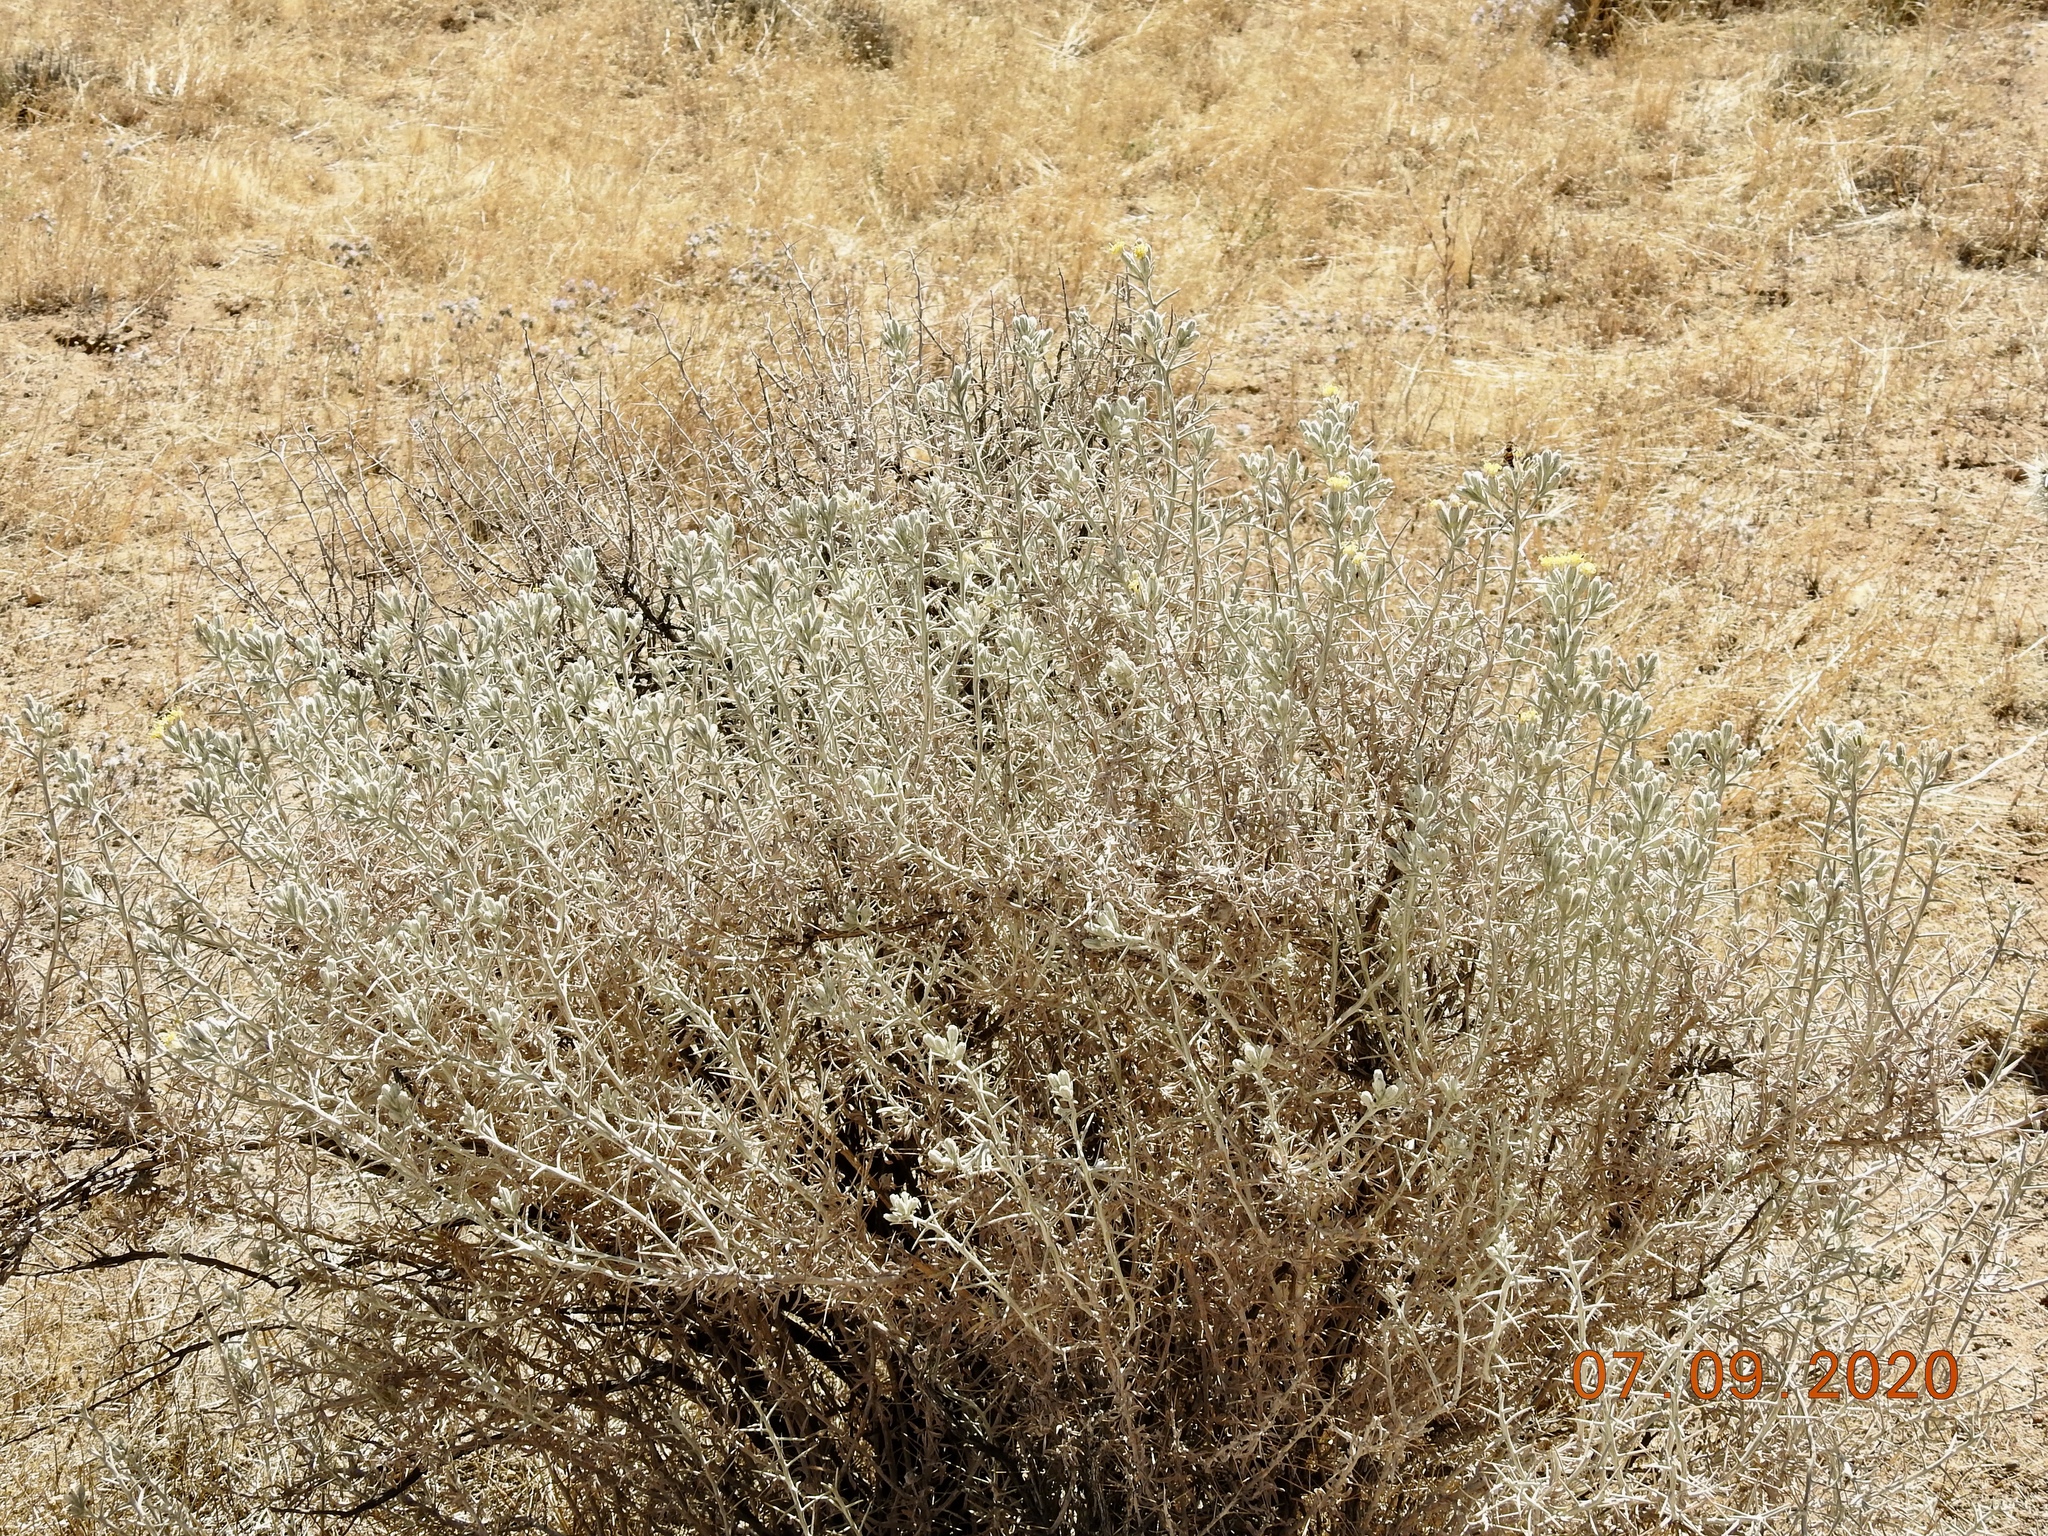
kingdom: Plantae
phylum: Tracheophyta
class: Magnoliopsida
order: Asterales
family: Asteraceae
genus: Tetradymia
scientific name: Tetradymia stenolepis
